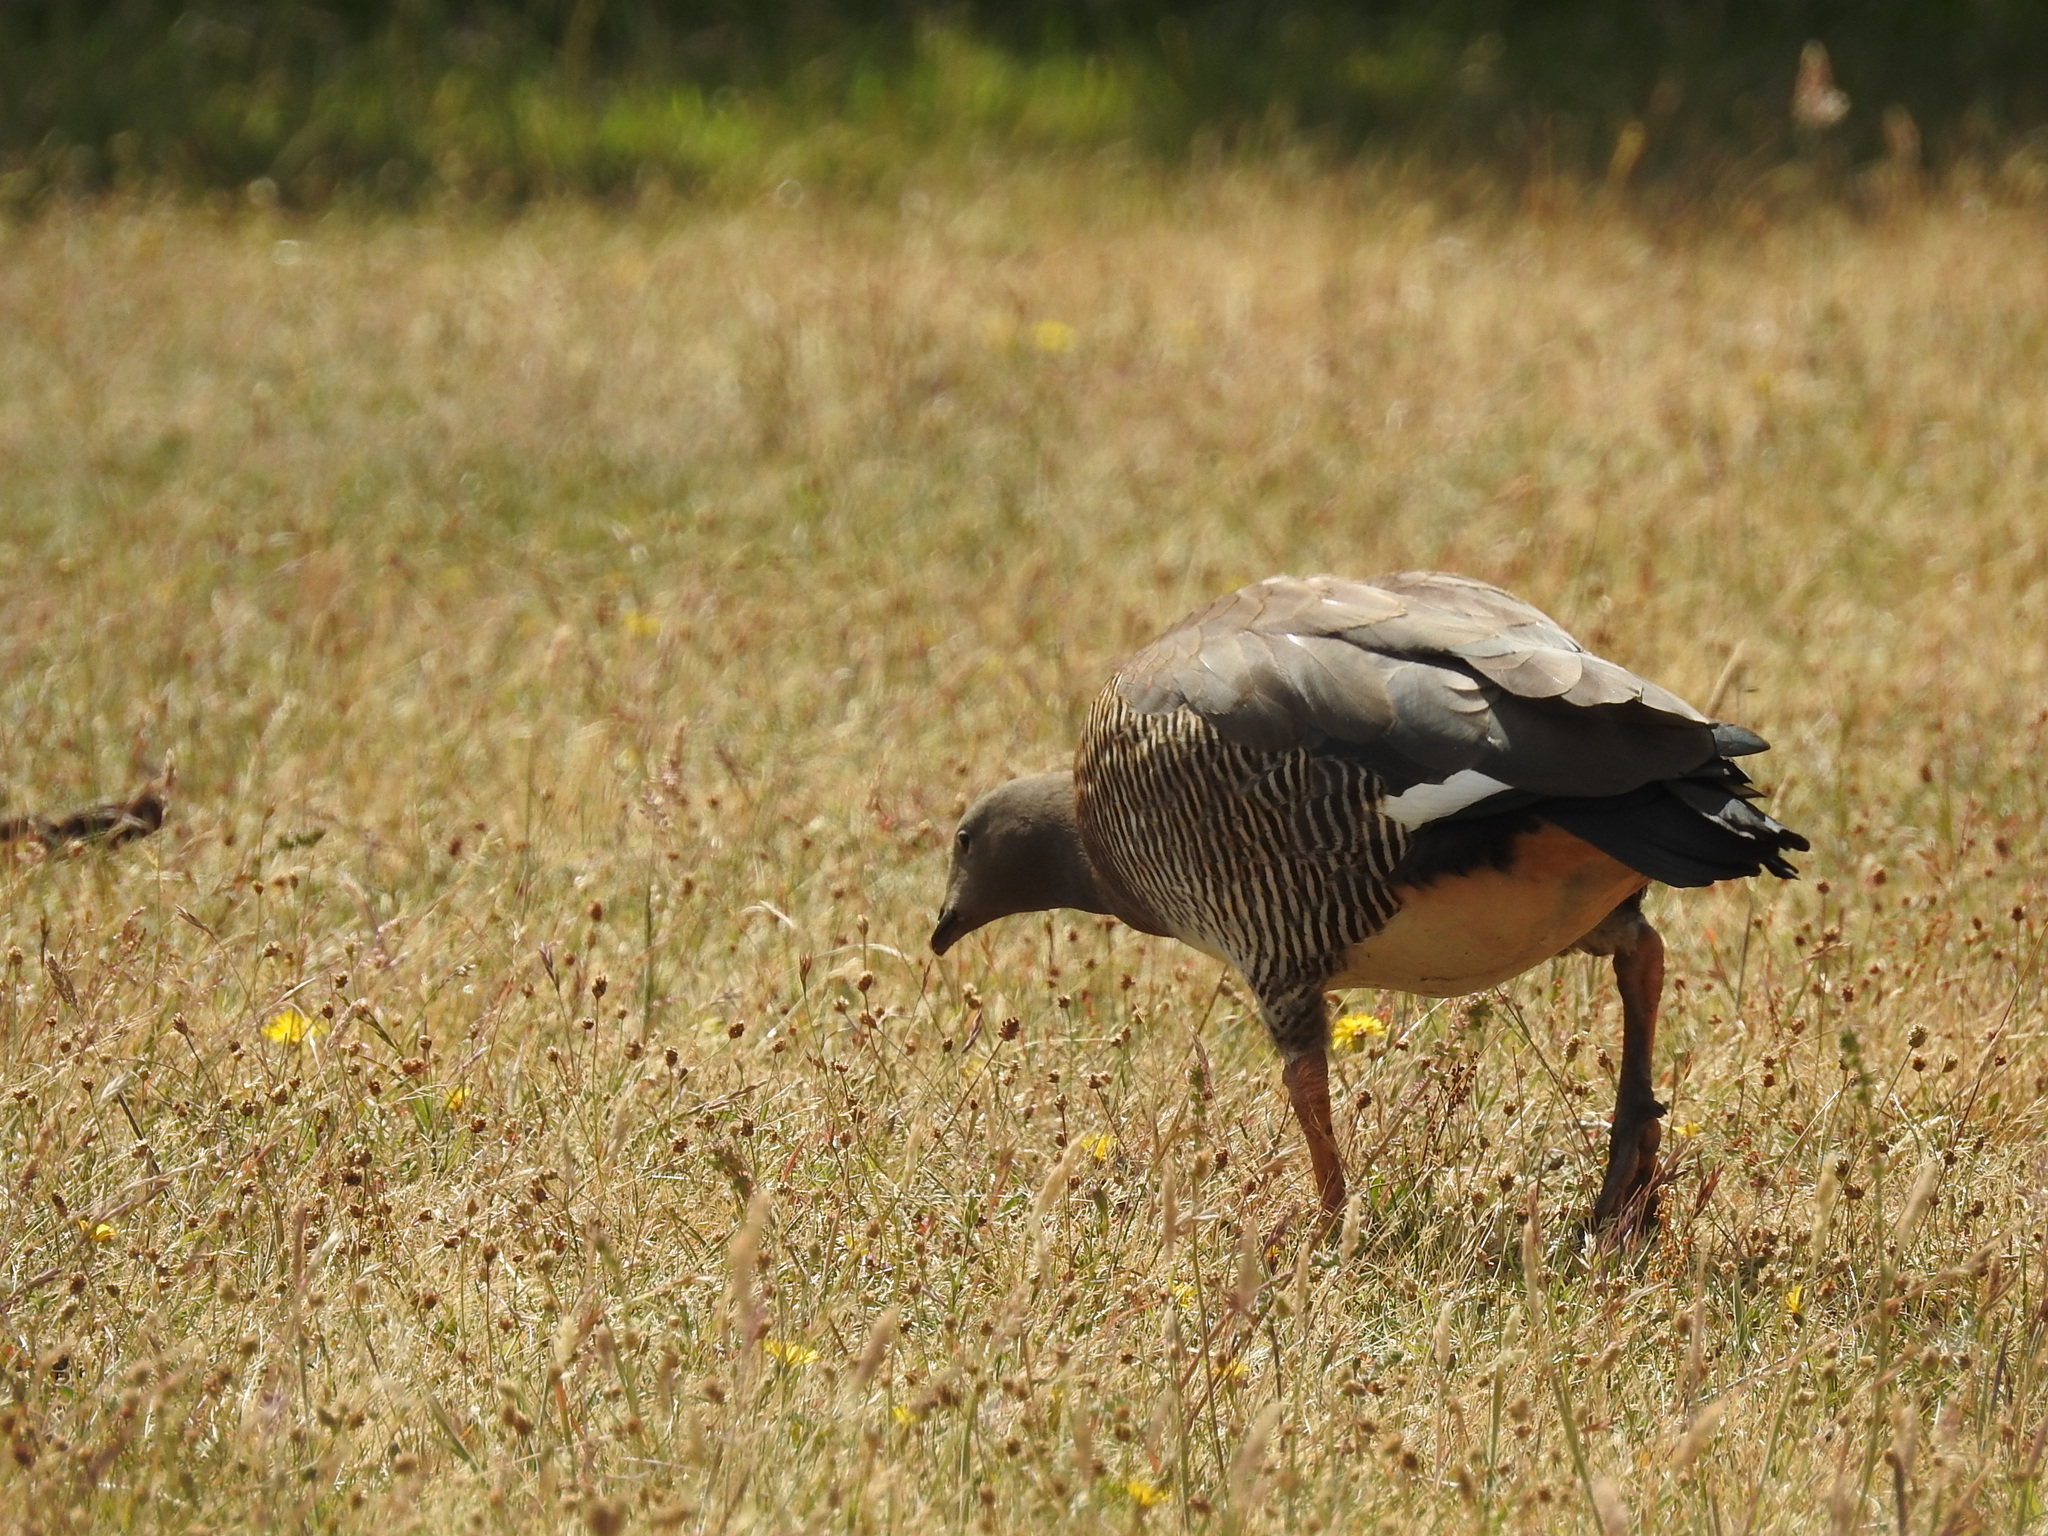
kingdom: Animalia
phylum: Chordata
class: Aves
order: Anseriformes
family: Anatidae
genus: Chloephaga
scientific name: Chloephaga poliocephala
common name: Ashy-headed goose
